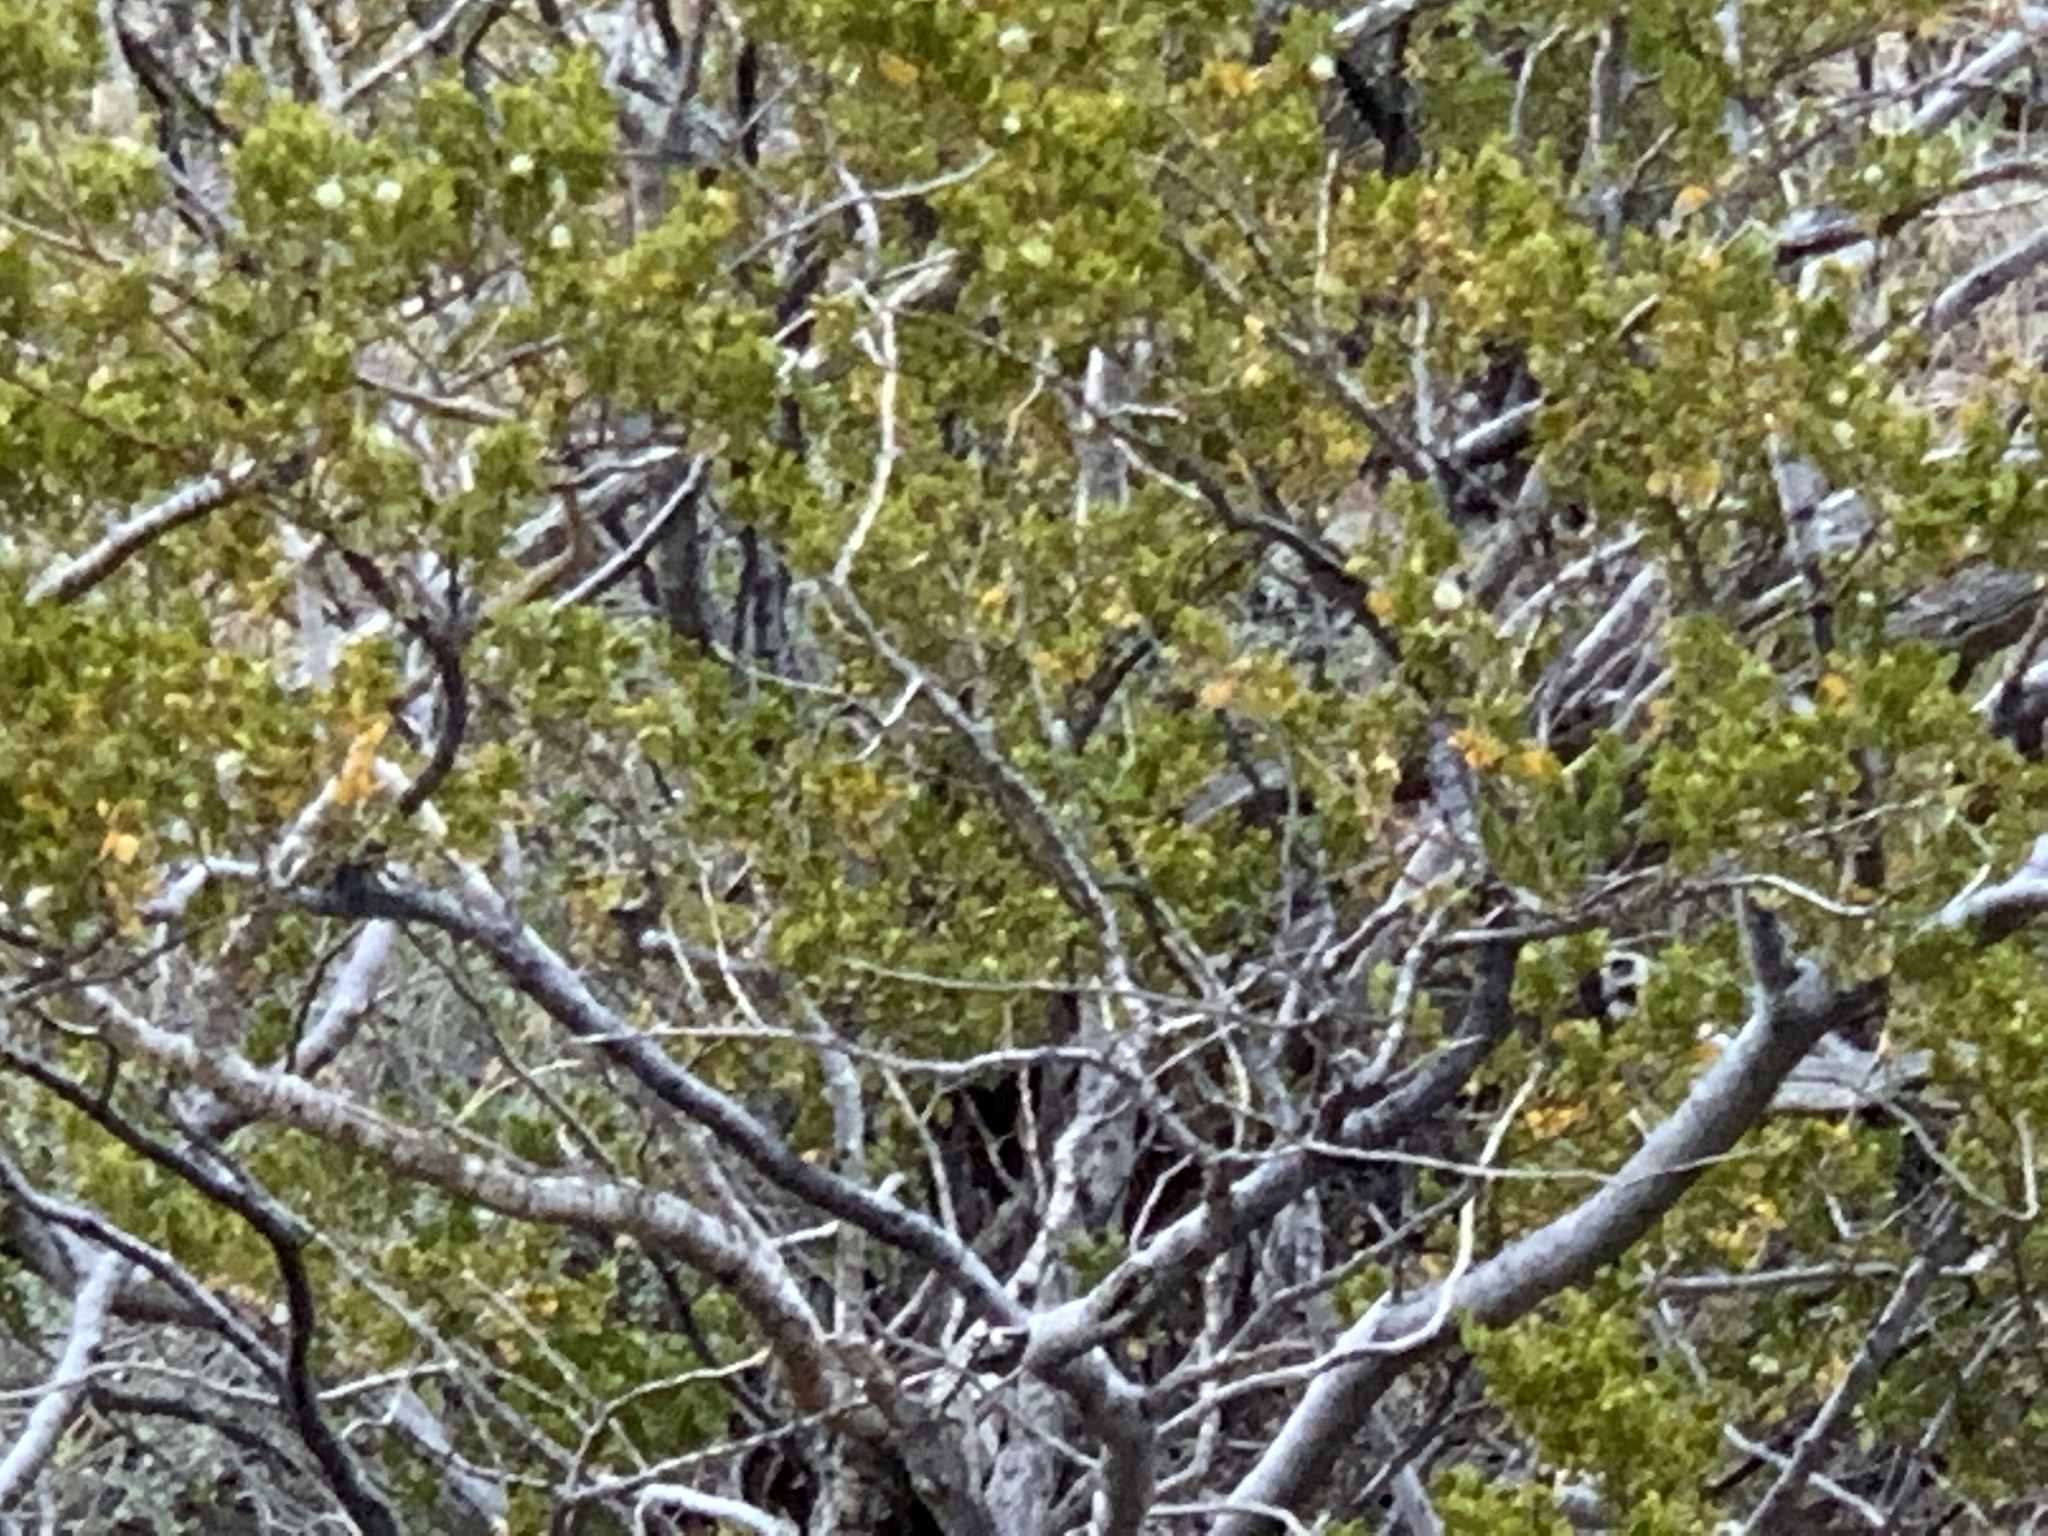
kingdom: Plantae
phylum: Tracheophyta
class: Magnoliopsida
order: Zygophyllales
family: Zygophyllaceae
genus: Larrea
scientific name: Larrea tridentata
